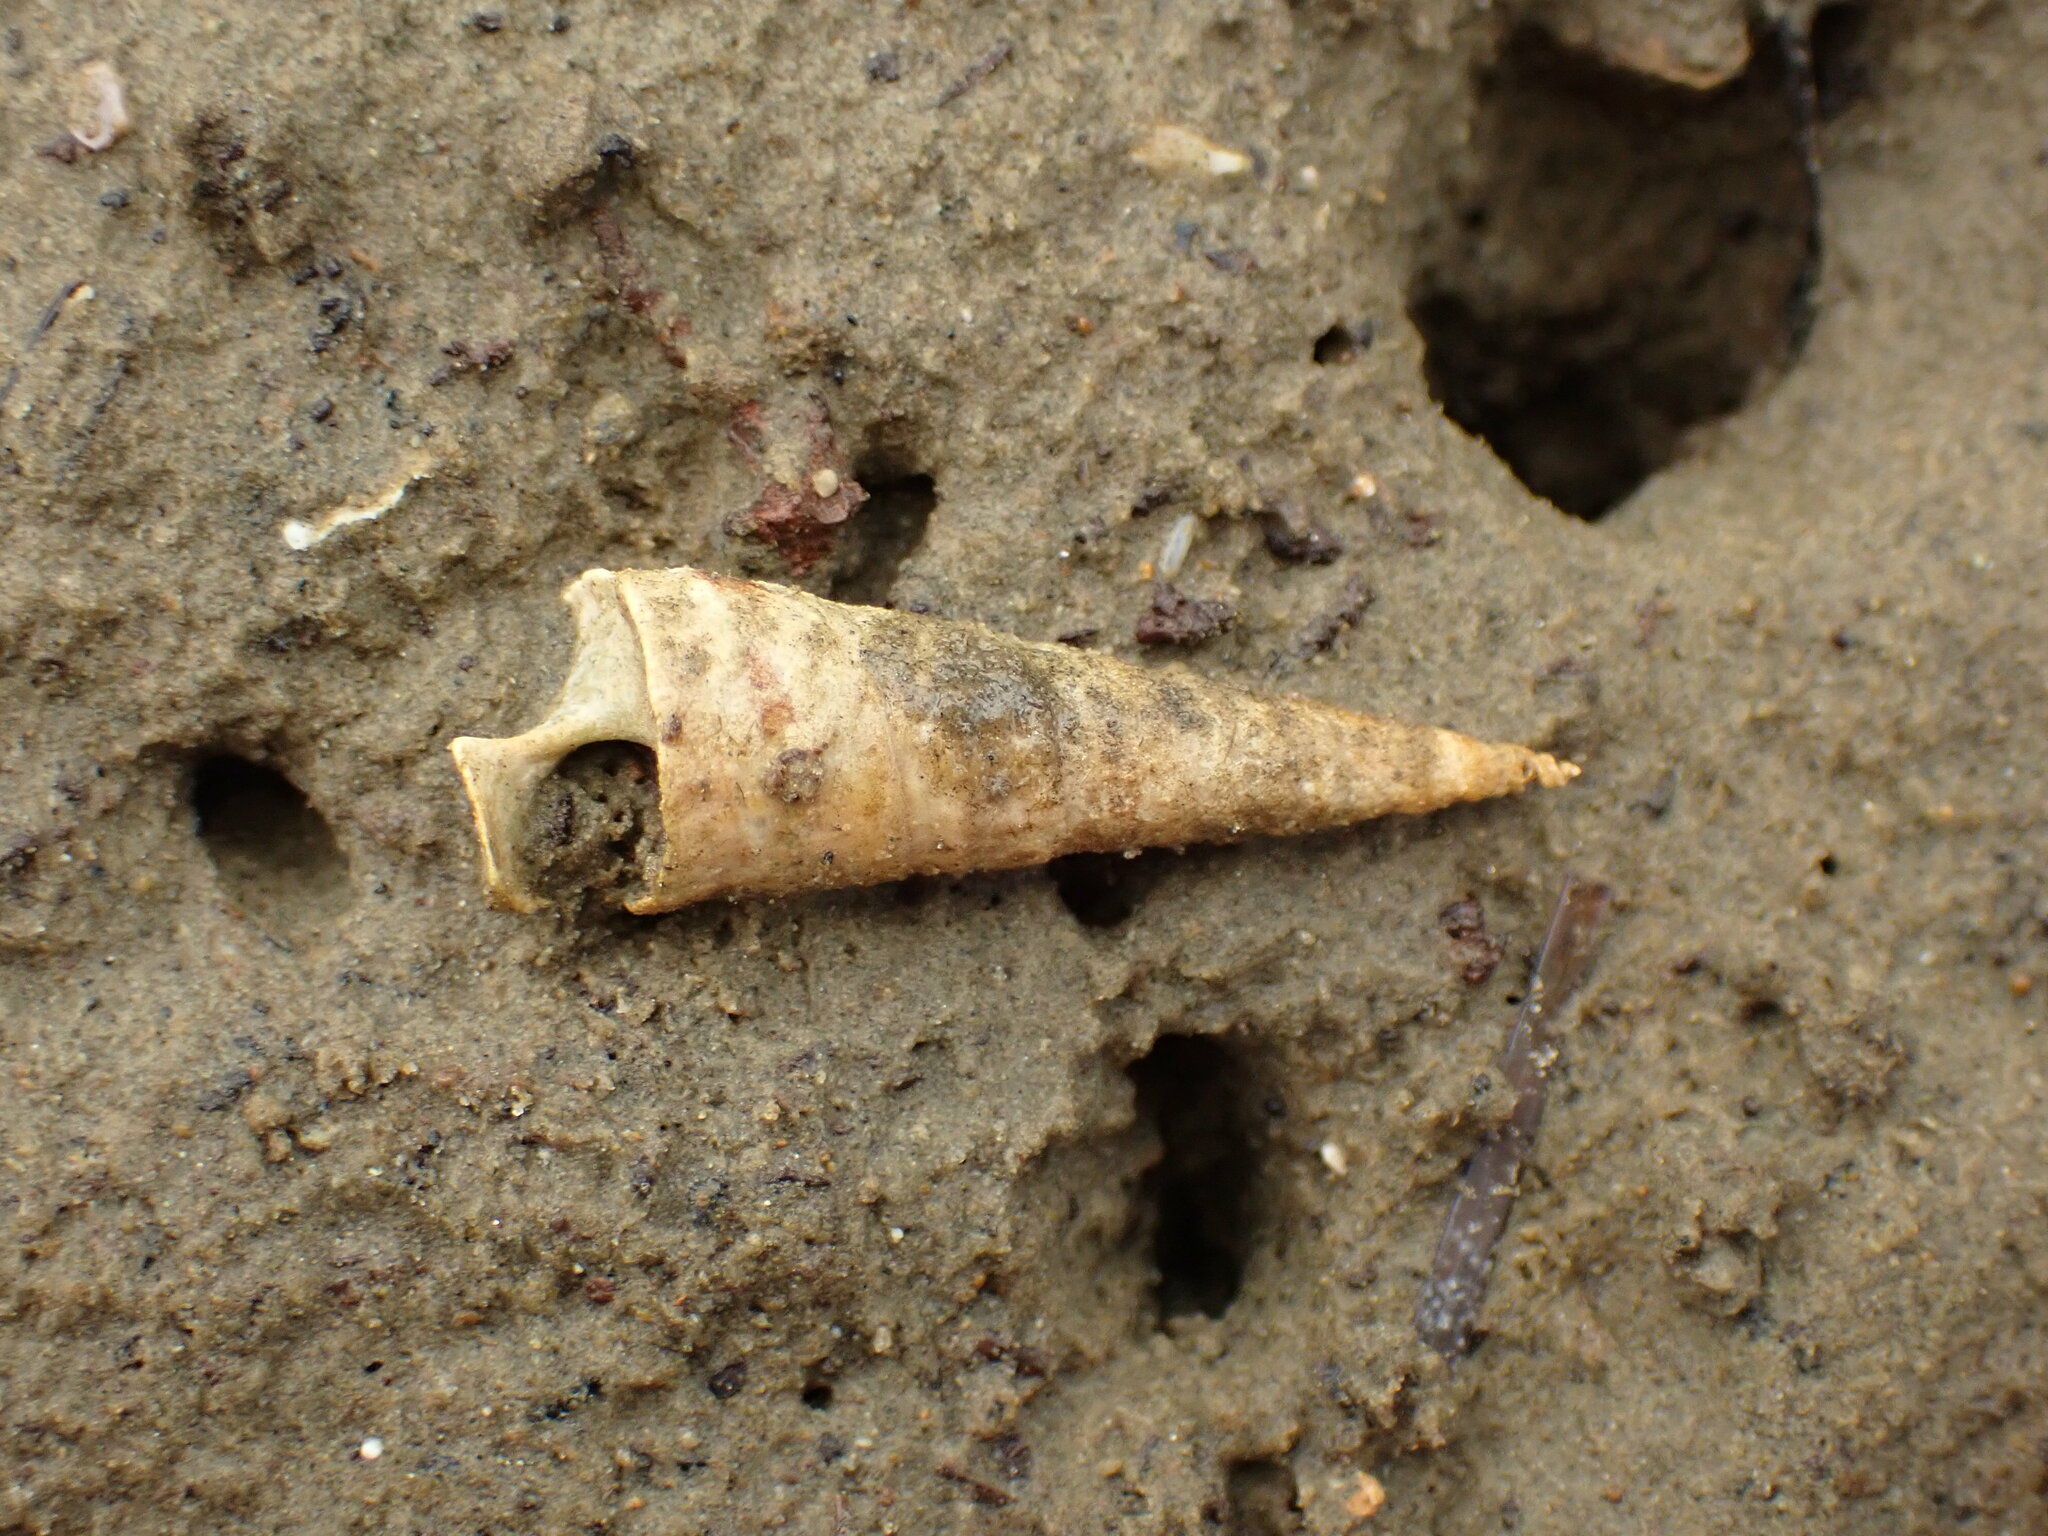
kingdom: Animalia
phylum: Mollusca
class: Gastropoda
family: Turritellidae
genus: Maoricolpus
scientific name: Maoricolpus roseus
